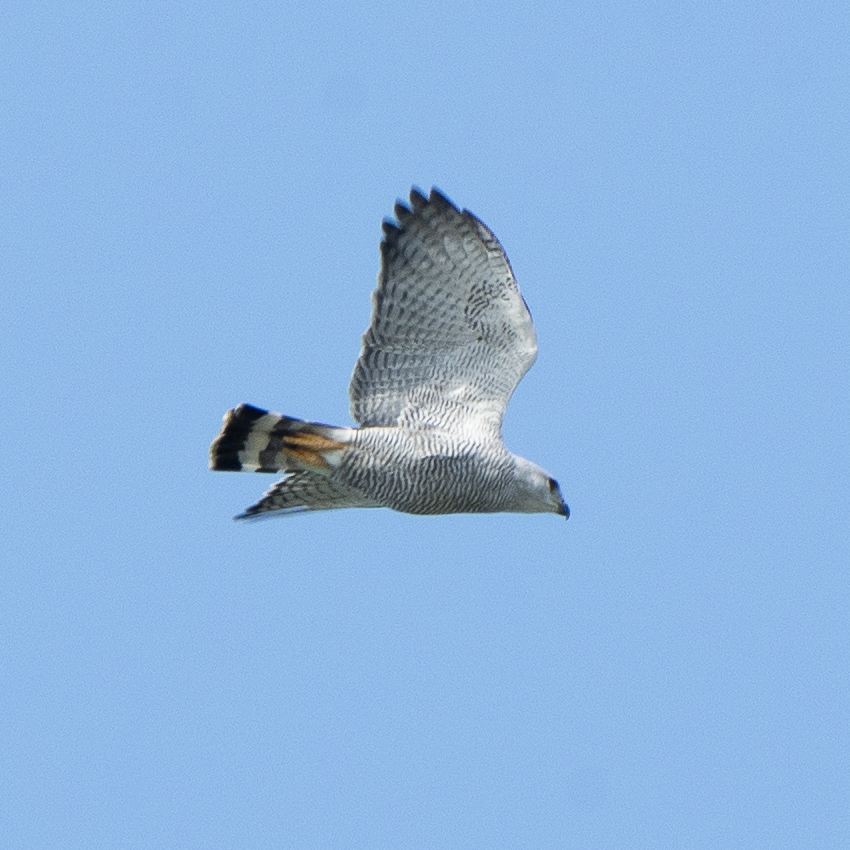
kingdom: Animalia
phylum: Chordata
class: Aves
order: Accipitriformes
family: Accipitridae
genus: Buteo
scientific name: Buteo nitidus
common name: Grey-lined hawk
